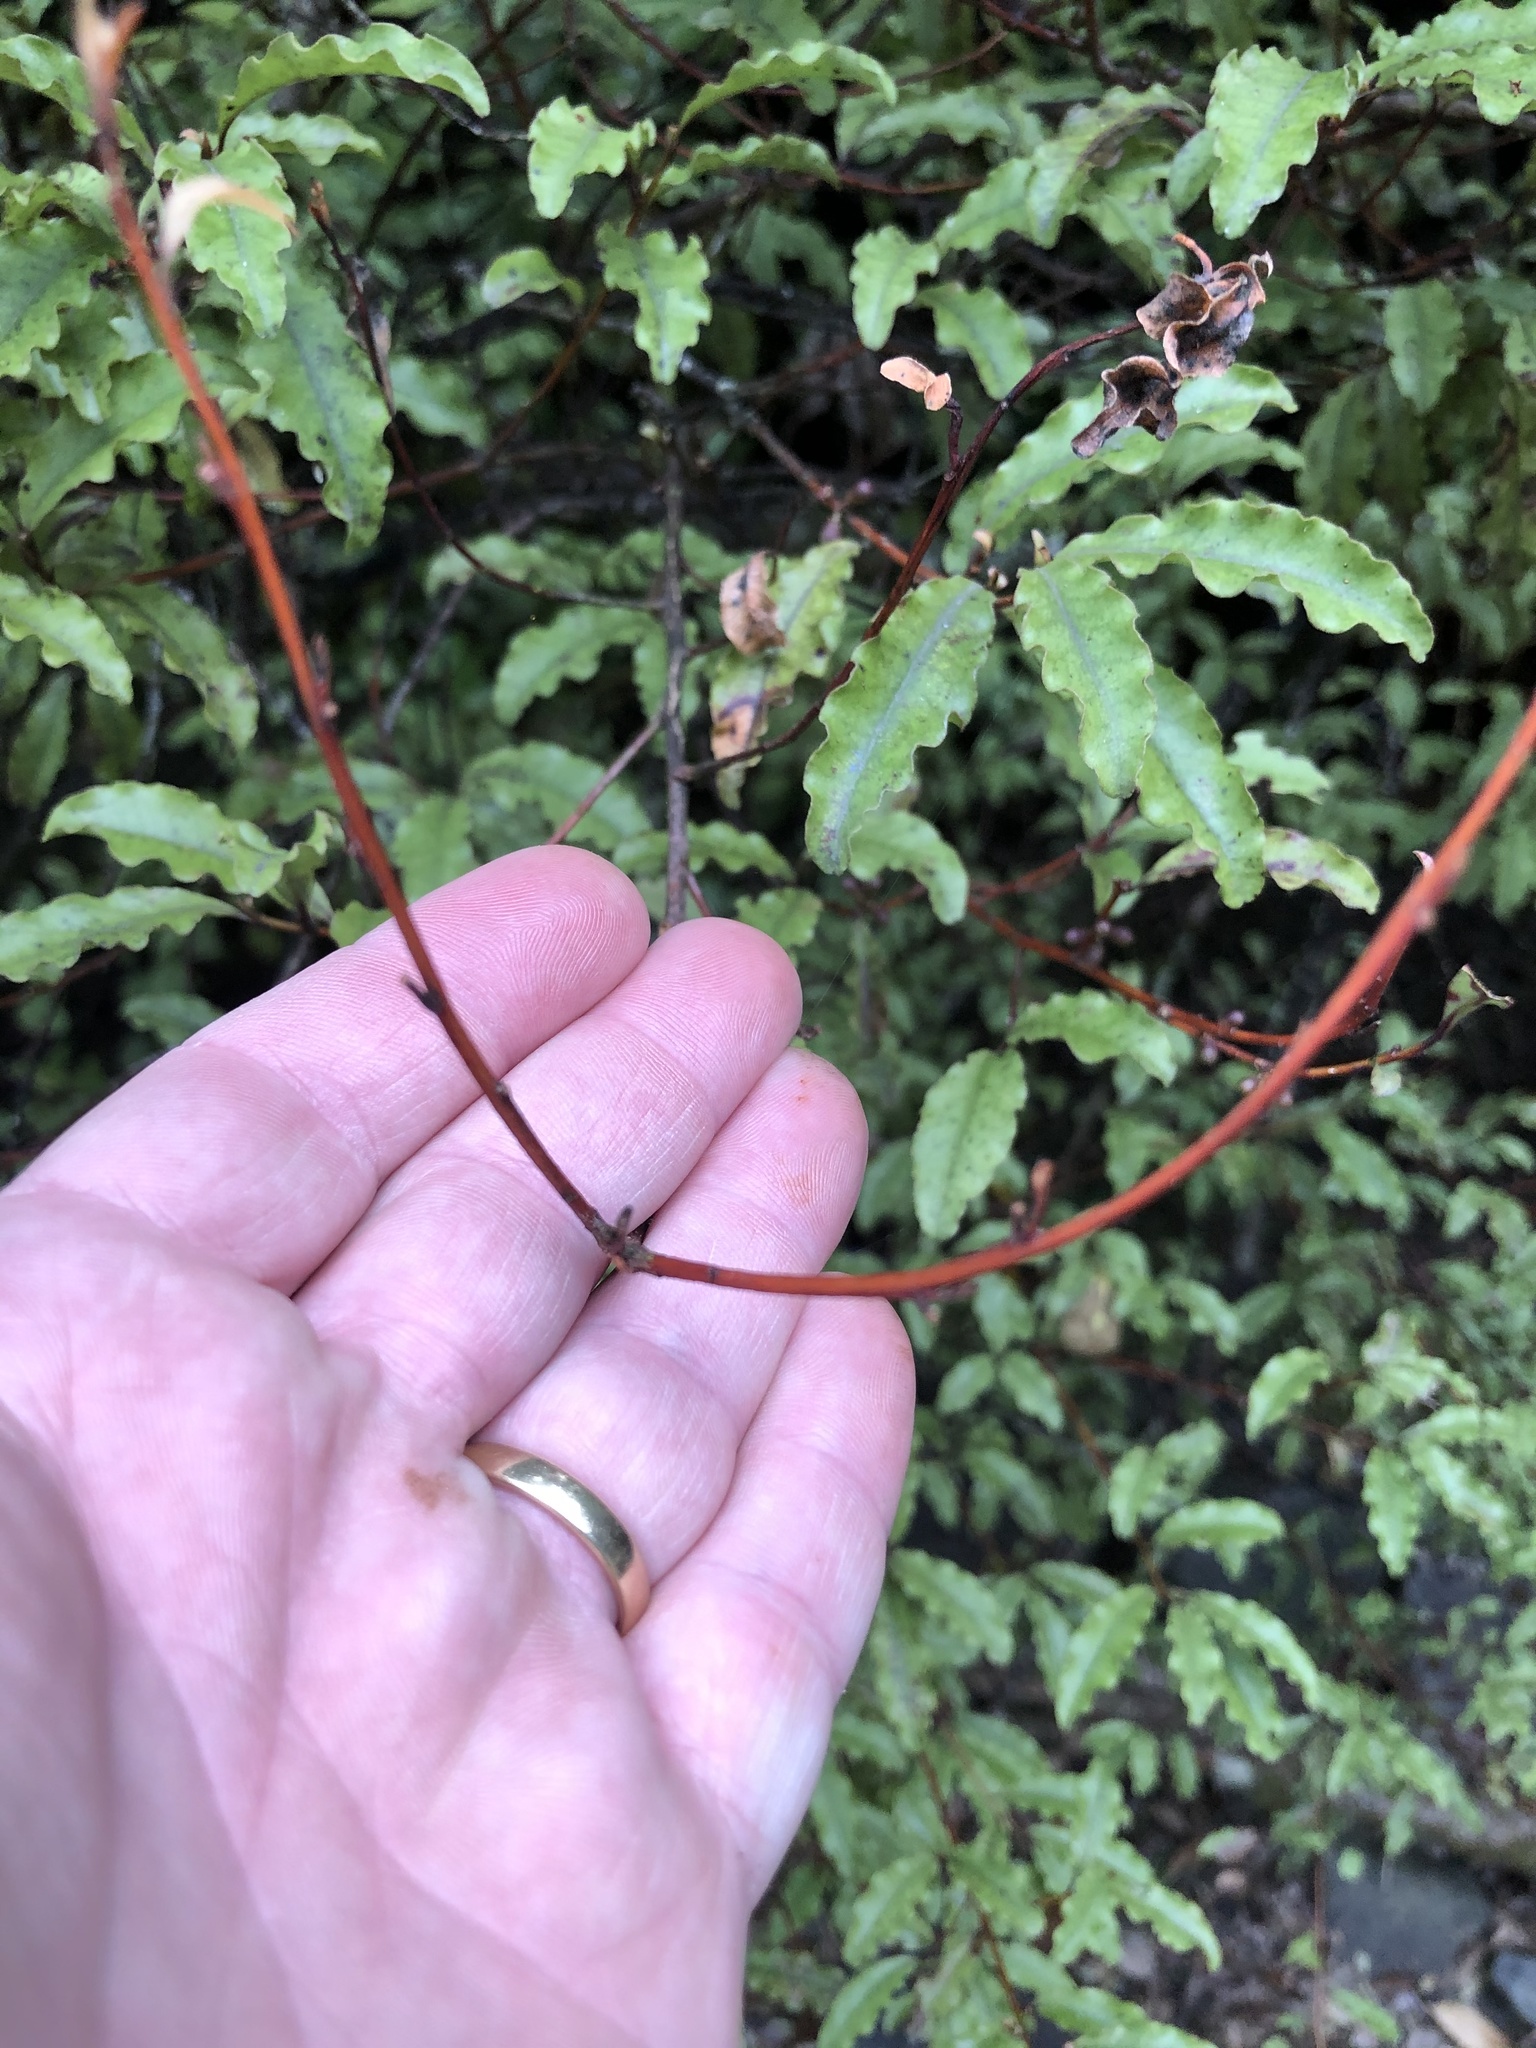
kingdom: Plantae
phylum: Tracheophyta
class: Magnoliopsida
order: Ericales
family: Primulaceae
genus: Myrsine
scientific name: Myrsine australis
